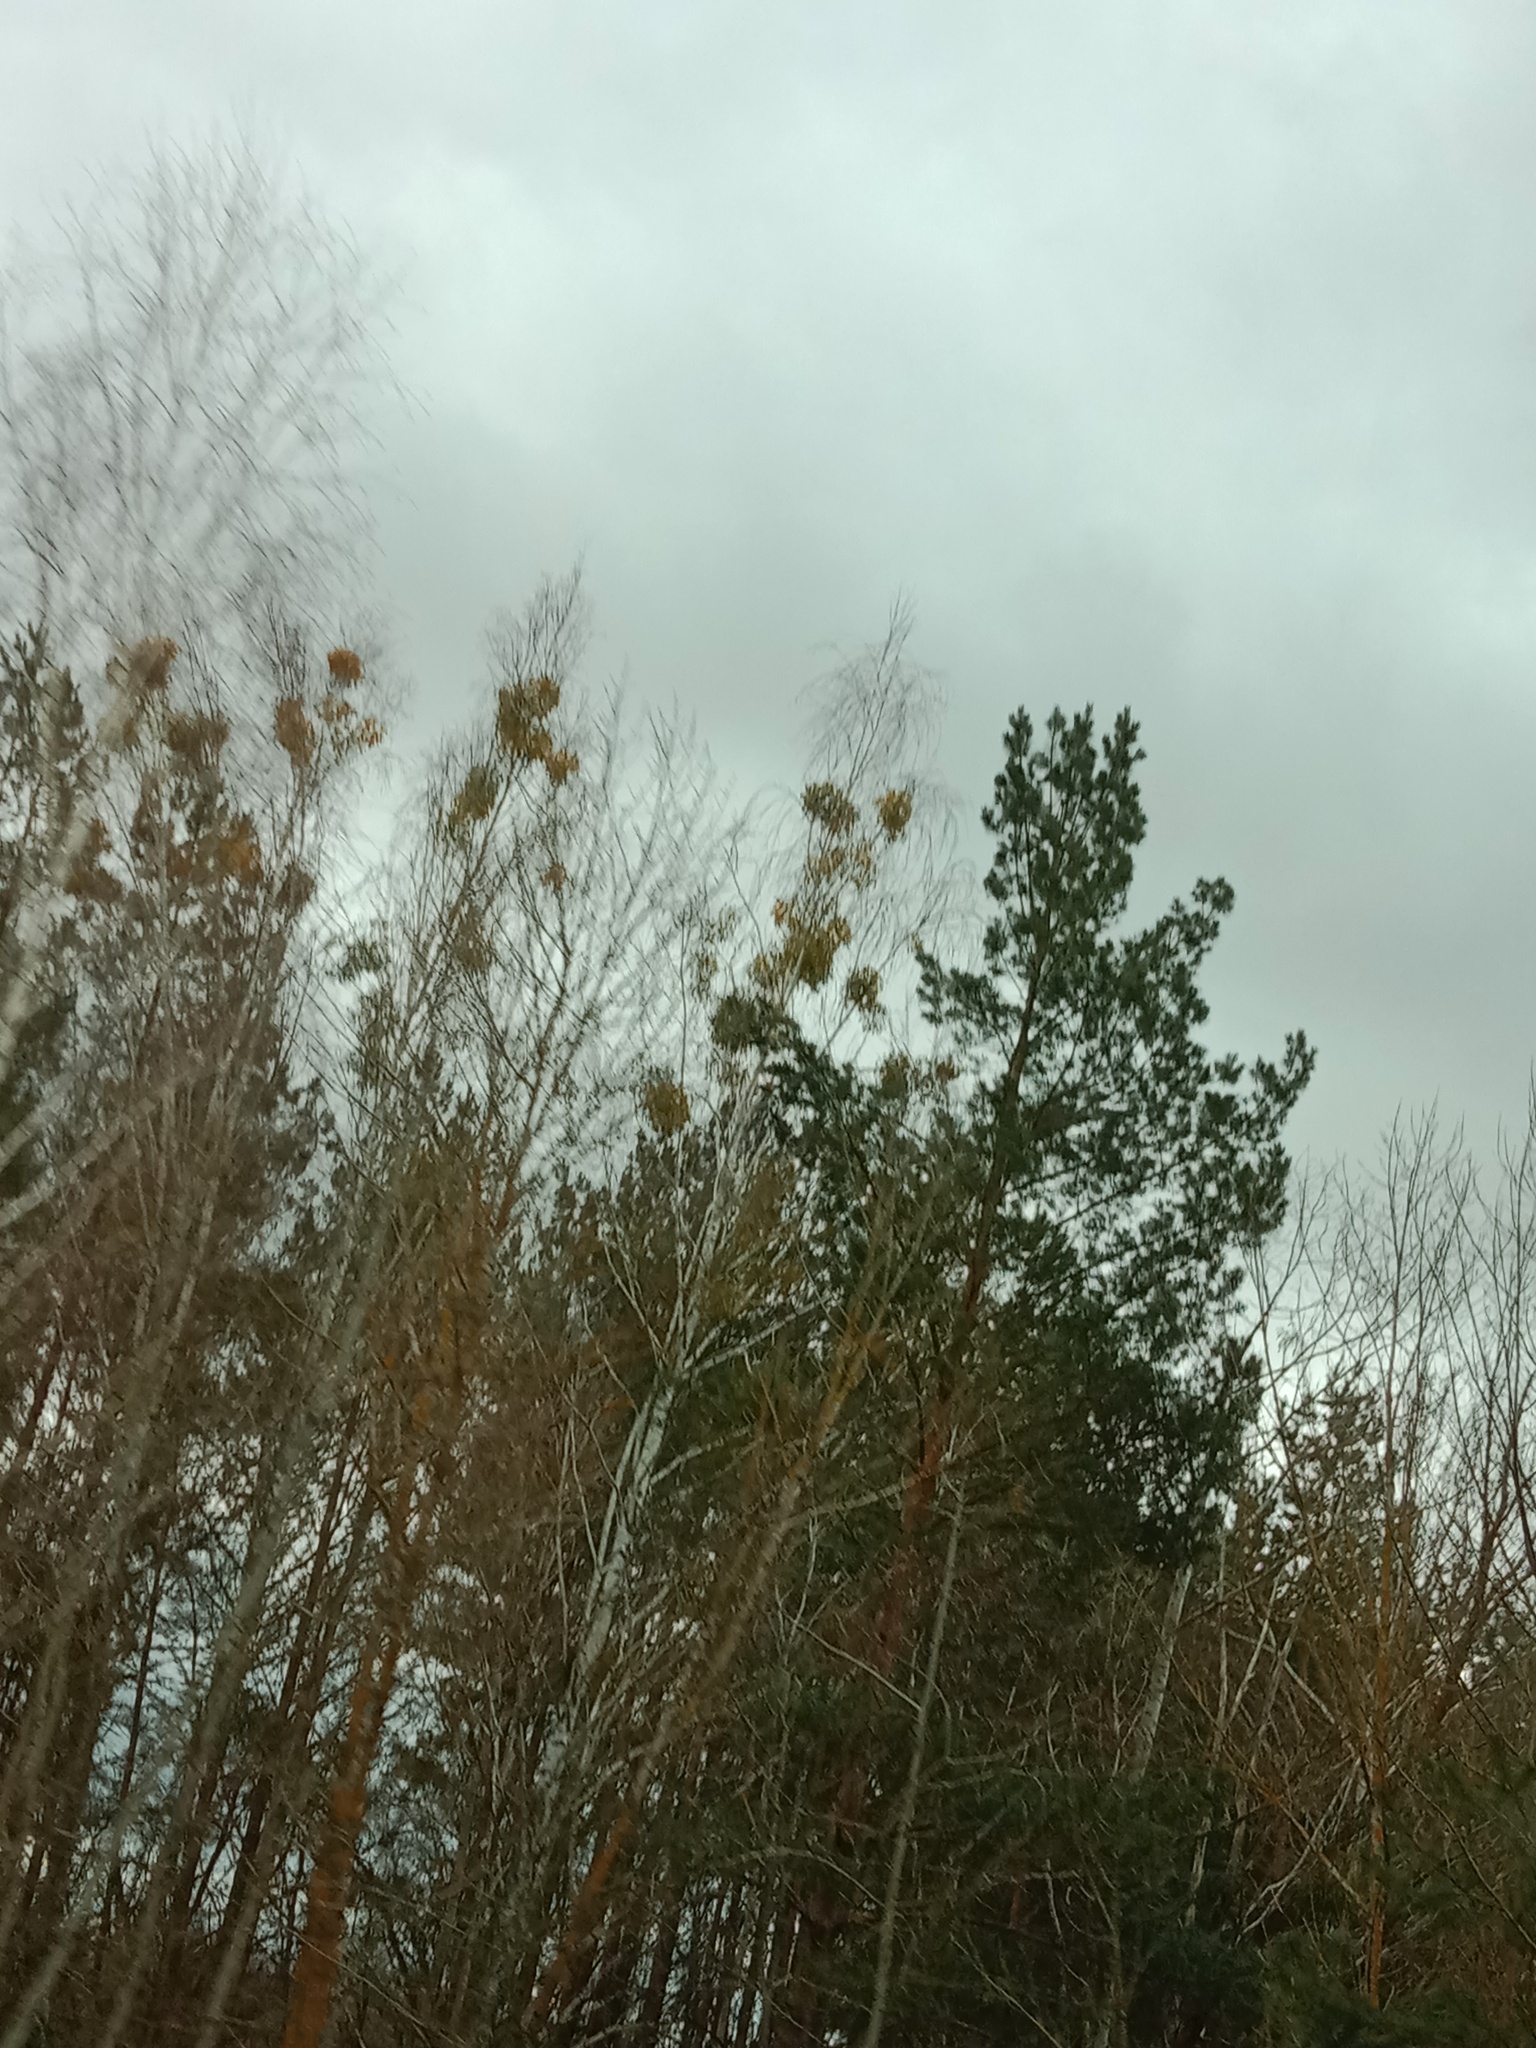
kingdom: Plantae
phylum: Tracheophyta
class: Magnoliopsida
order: Santalales
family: Viscaceae
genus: Viscum
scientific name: Viscum album
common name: Mistletoe
